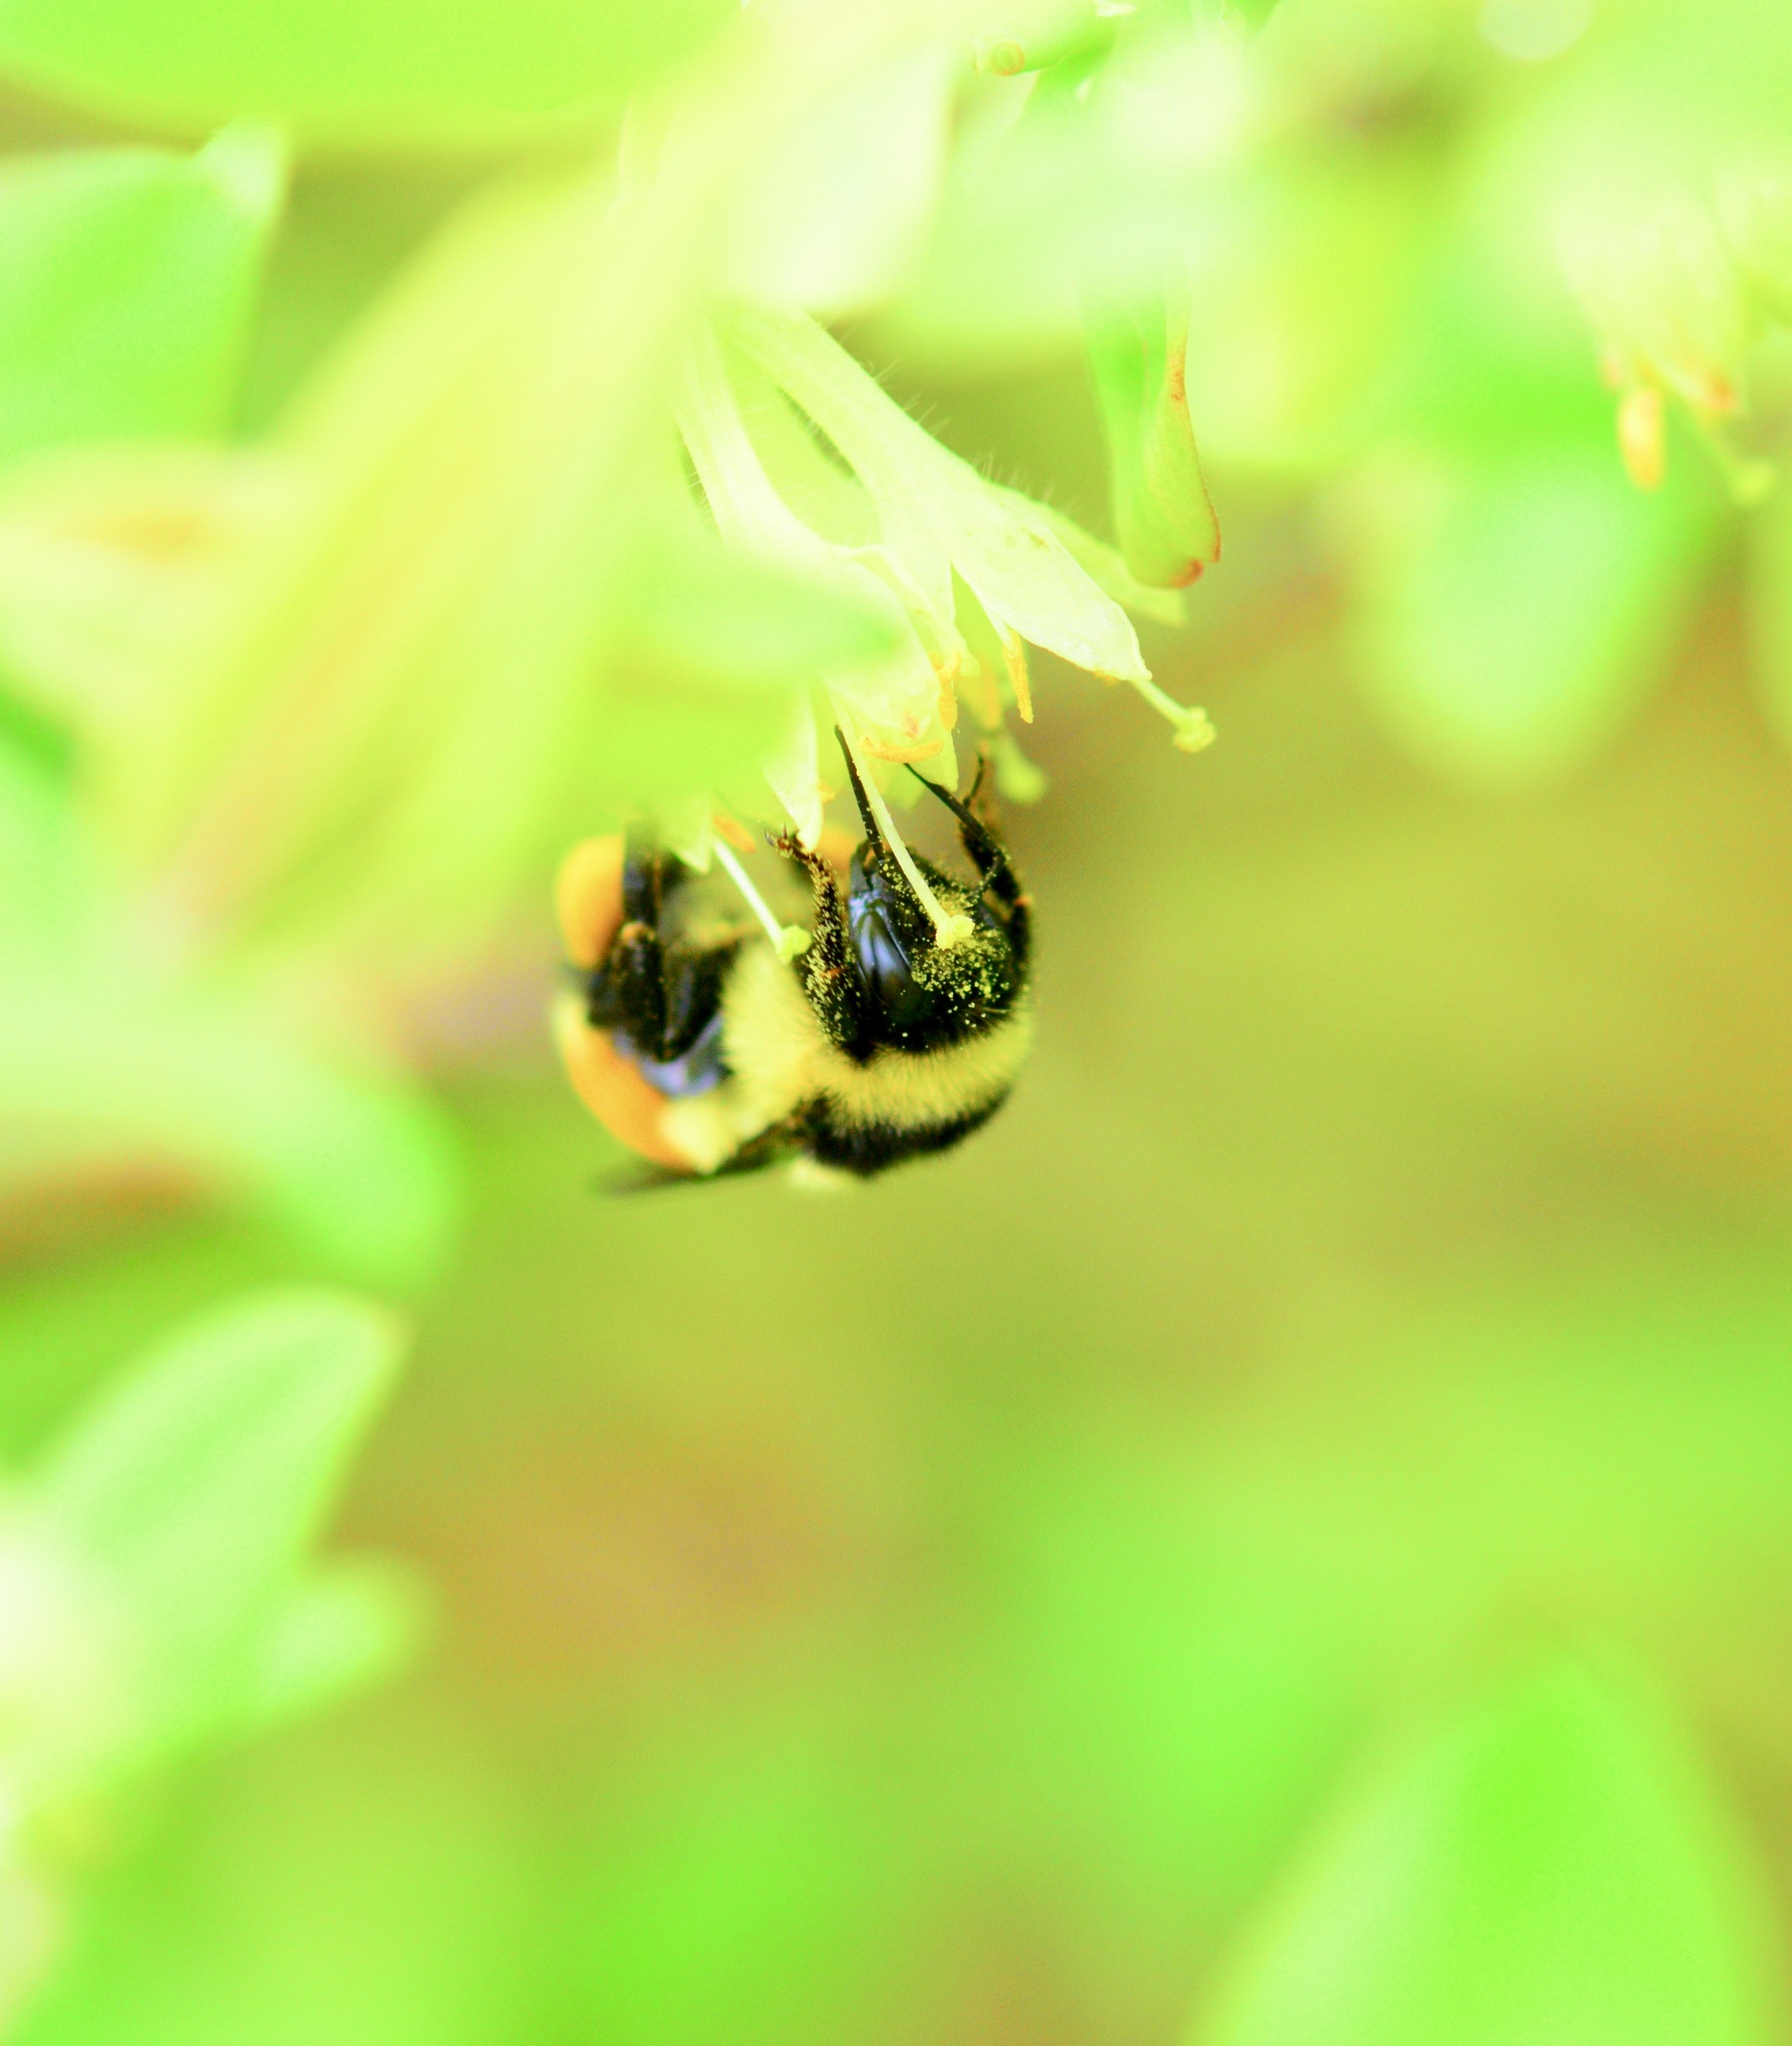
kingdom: Animalia
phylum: Arthropoda
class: Insecta
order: Hymenoptera
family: Apidae
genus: Bombus
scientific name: Bombus ternarius
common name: Tri-colored bumble bee
